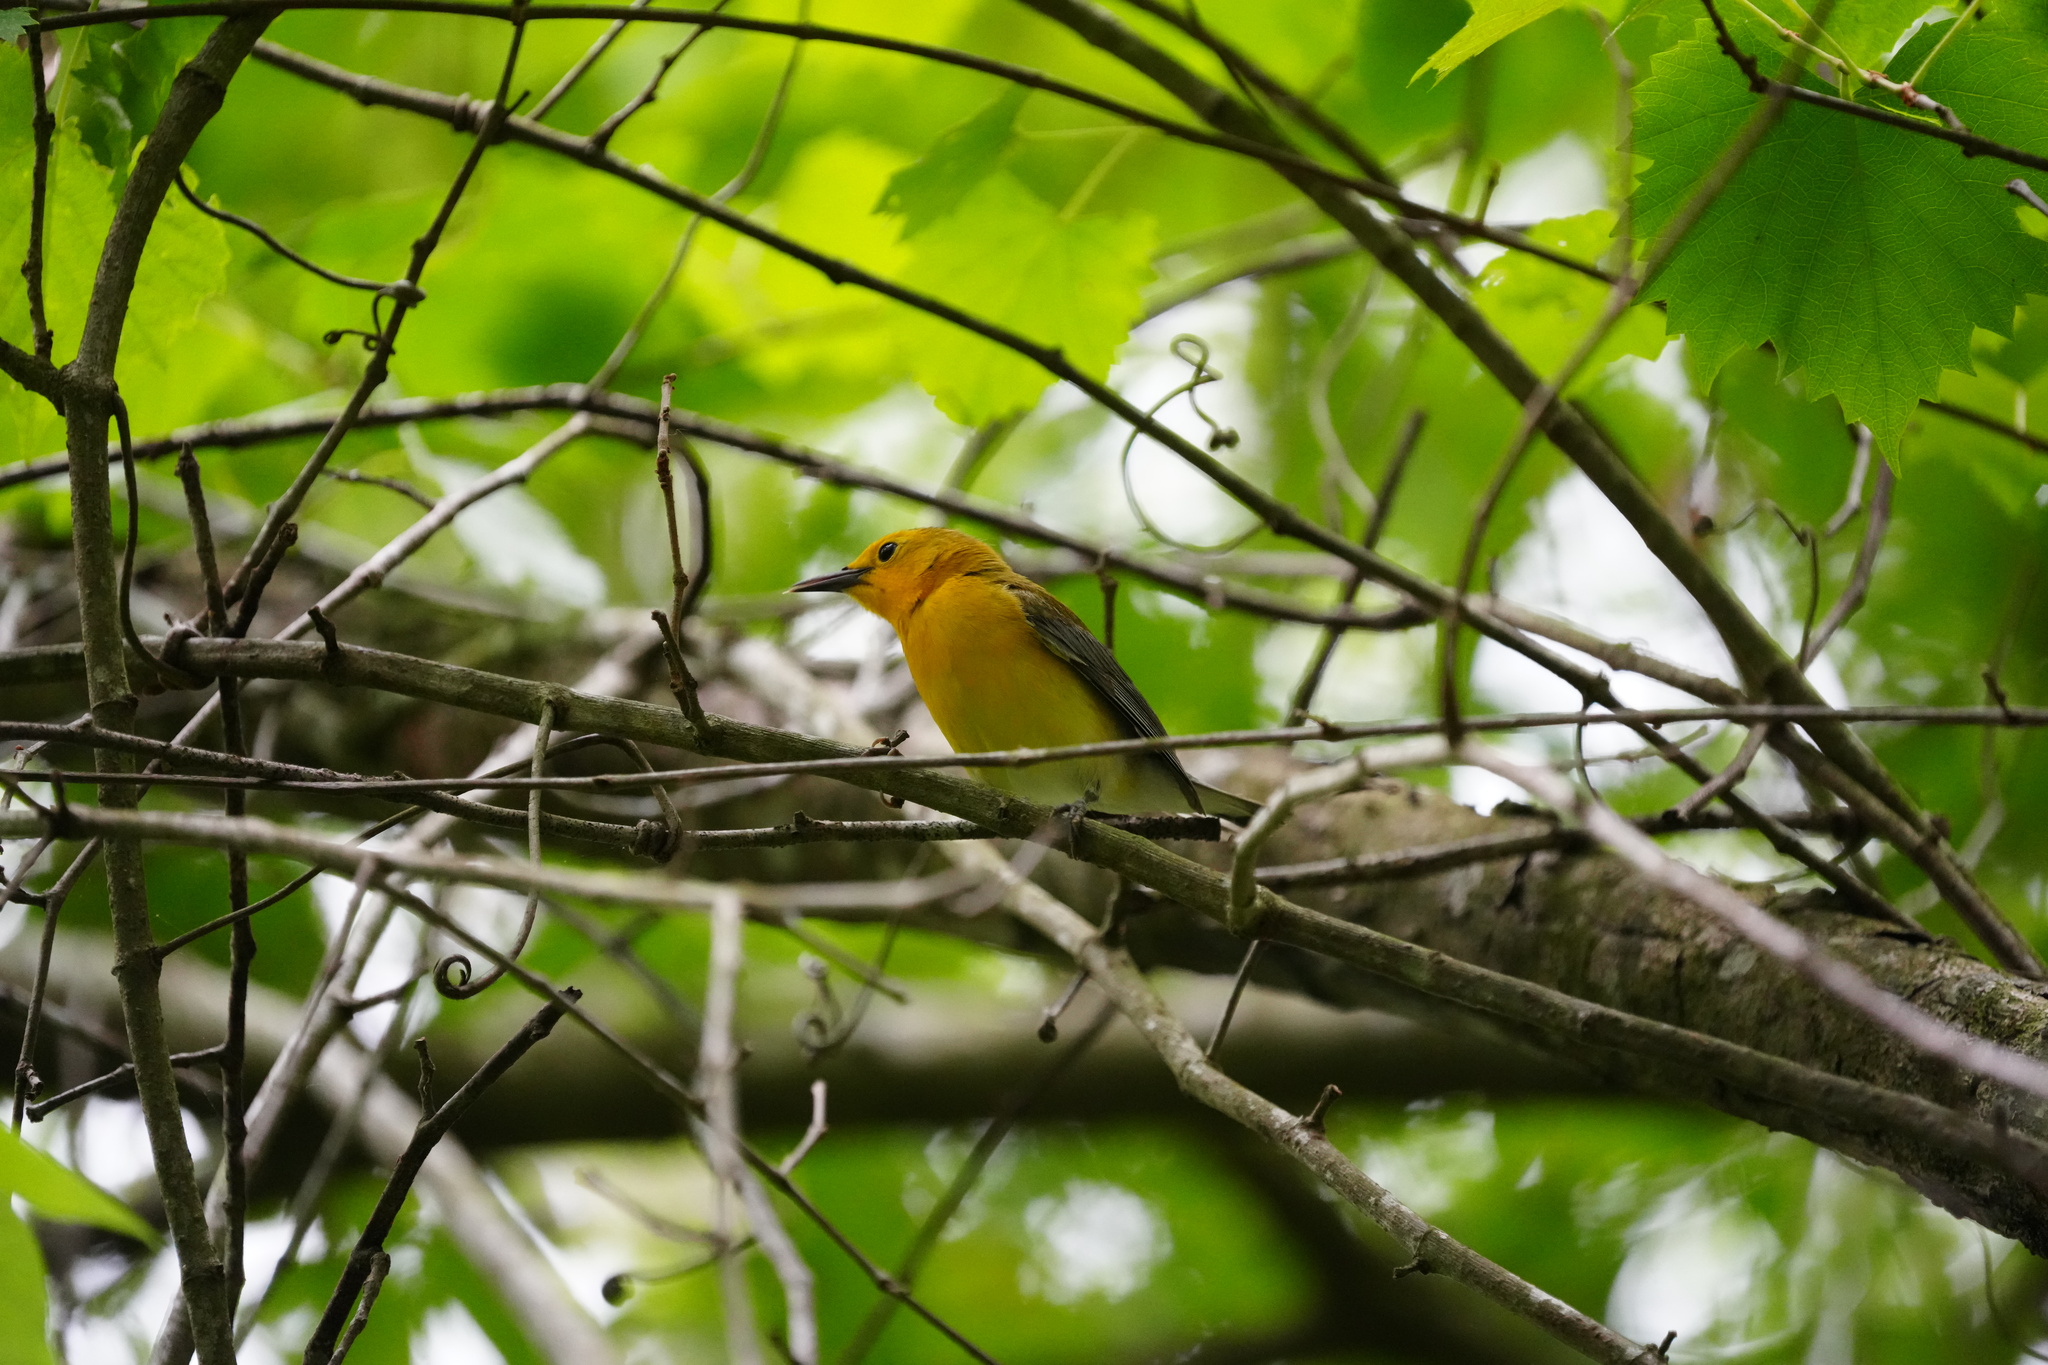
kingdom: Animalia
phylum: Chordata
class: Aves
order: Passeriformes
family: Parulidae
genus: Protonotaria
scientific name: Protonotaria citrea
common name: Prothonotary warbler
